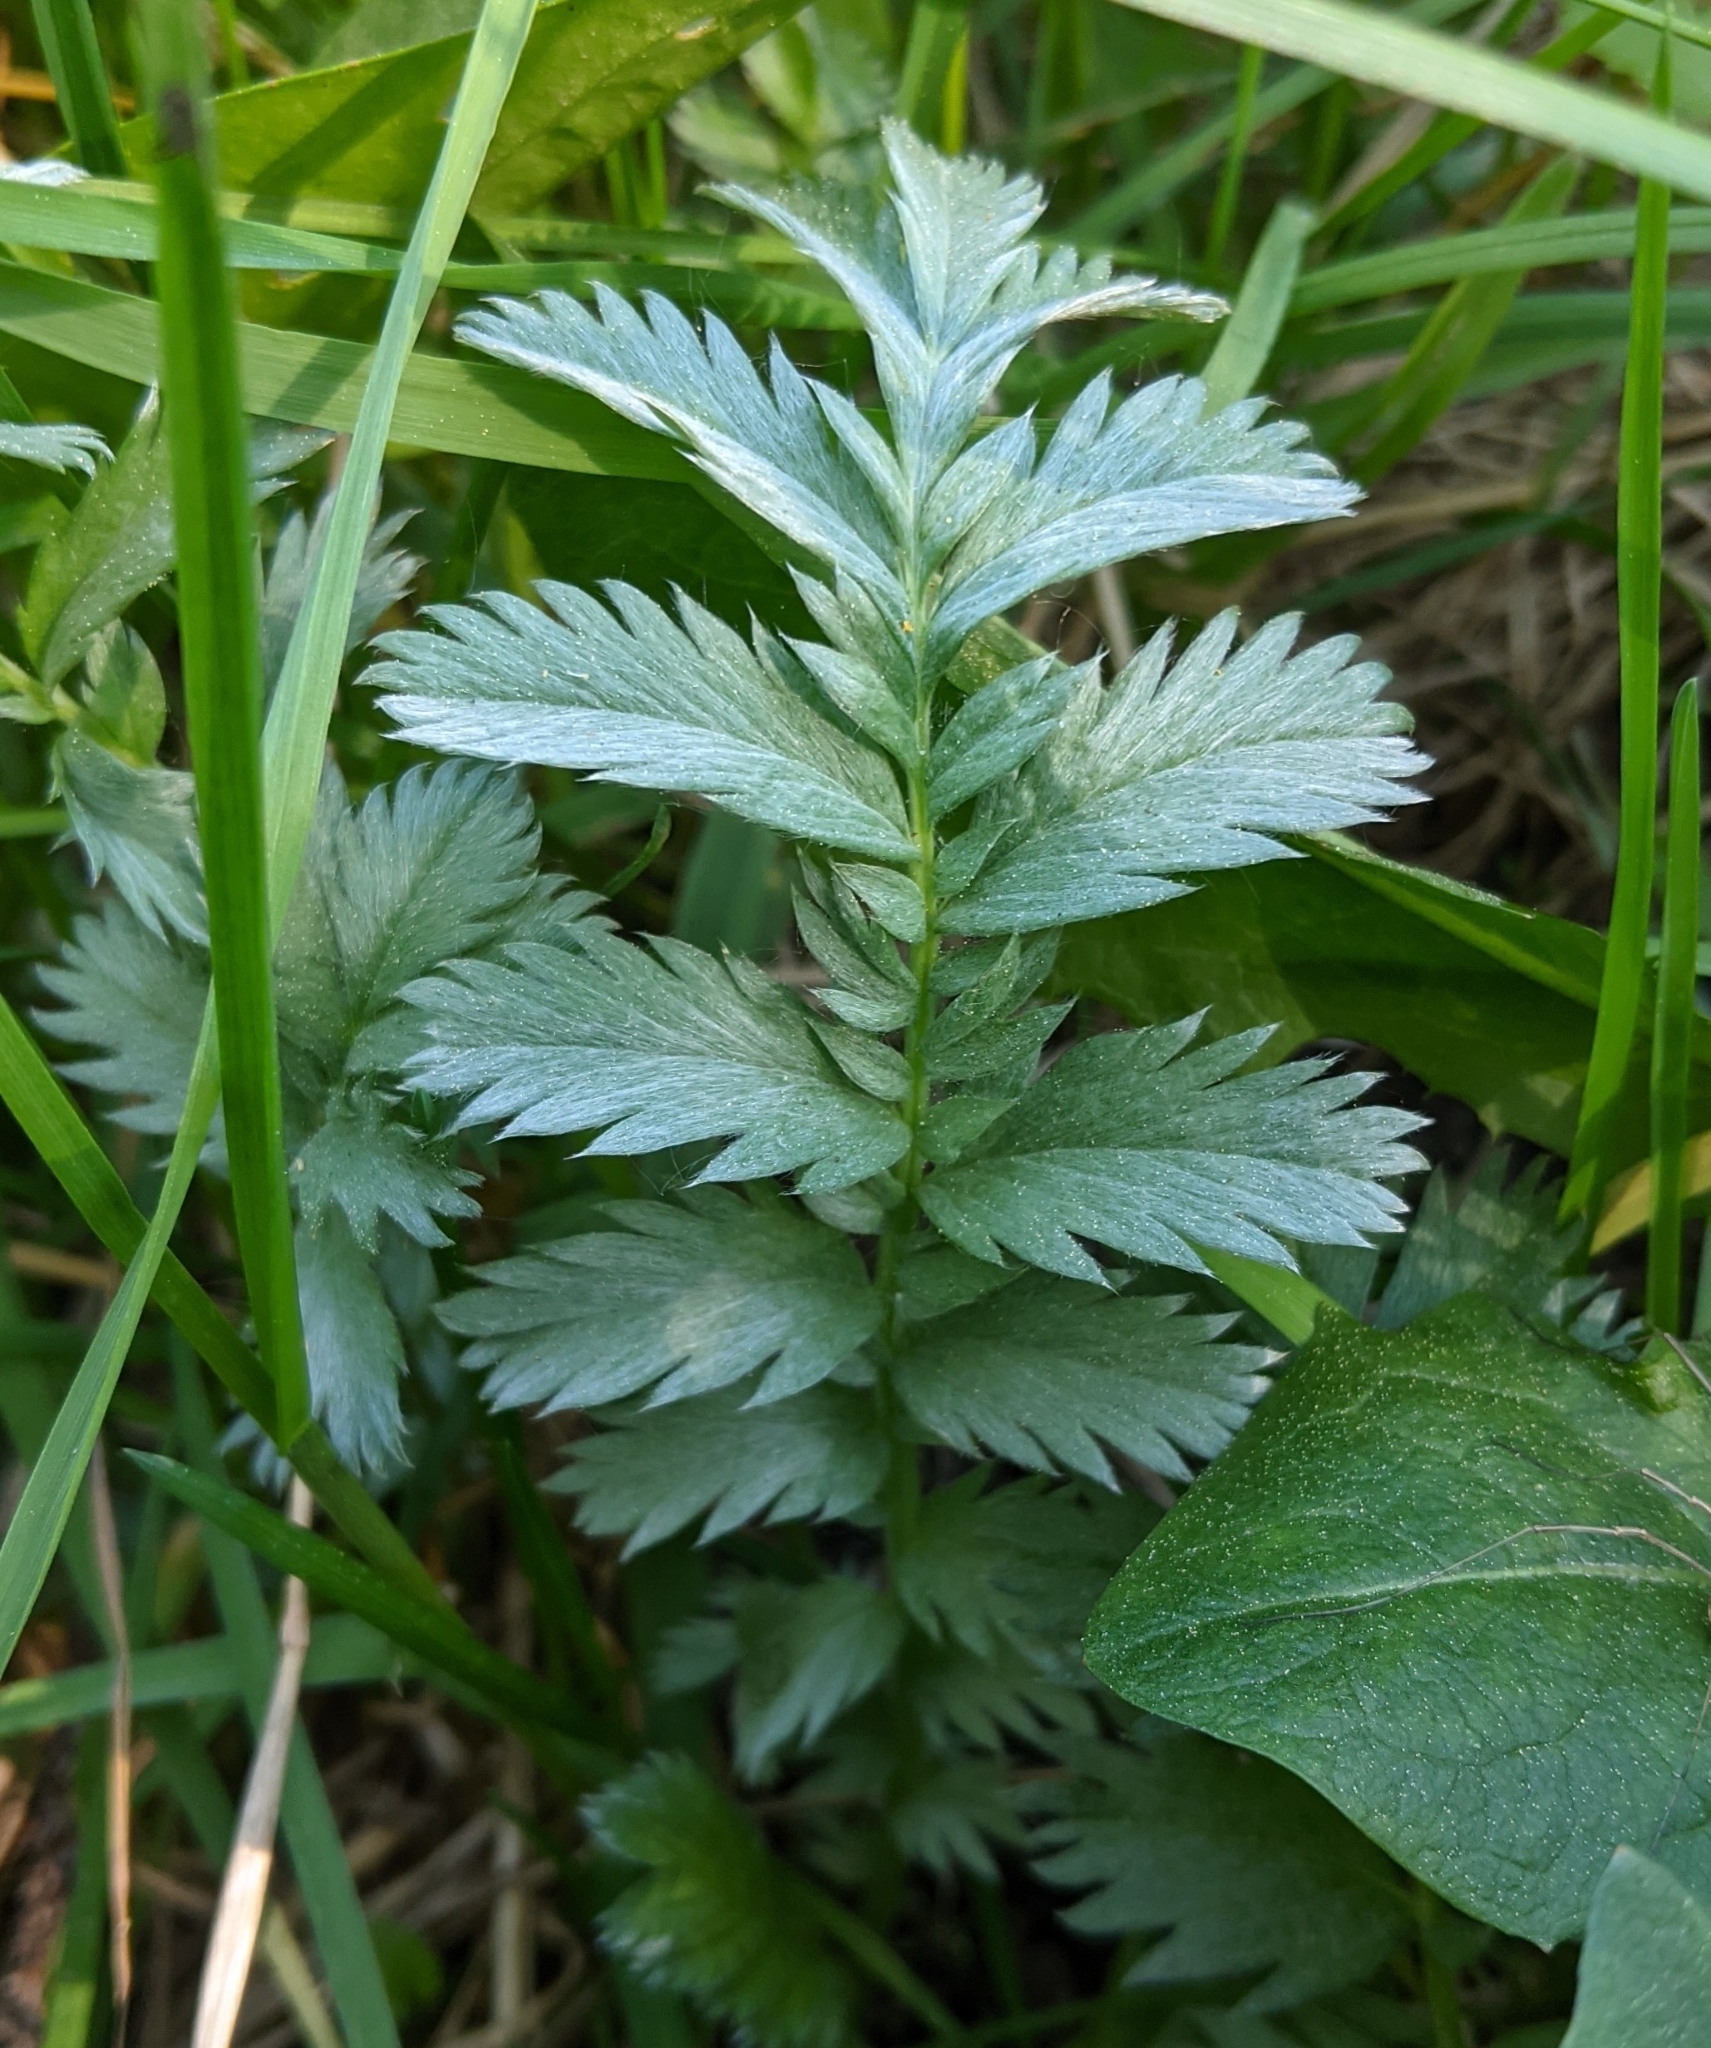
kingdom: Plantae
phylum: Tracheophyta
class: Magnoliopsida
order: Rosales
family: Rosaceae
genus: Argentina
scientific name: Argentina anserina
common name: Common silverweed
